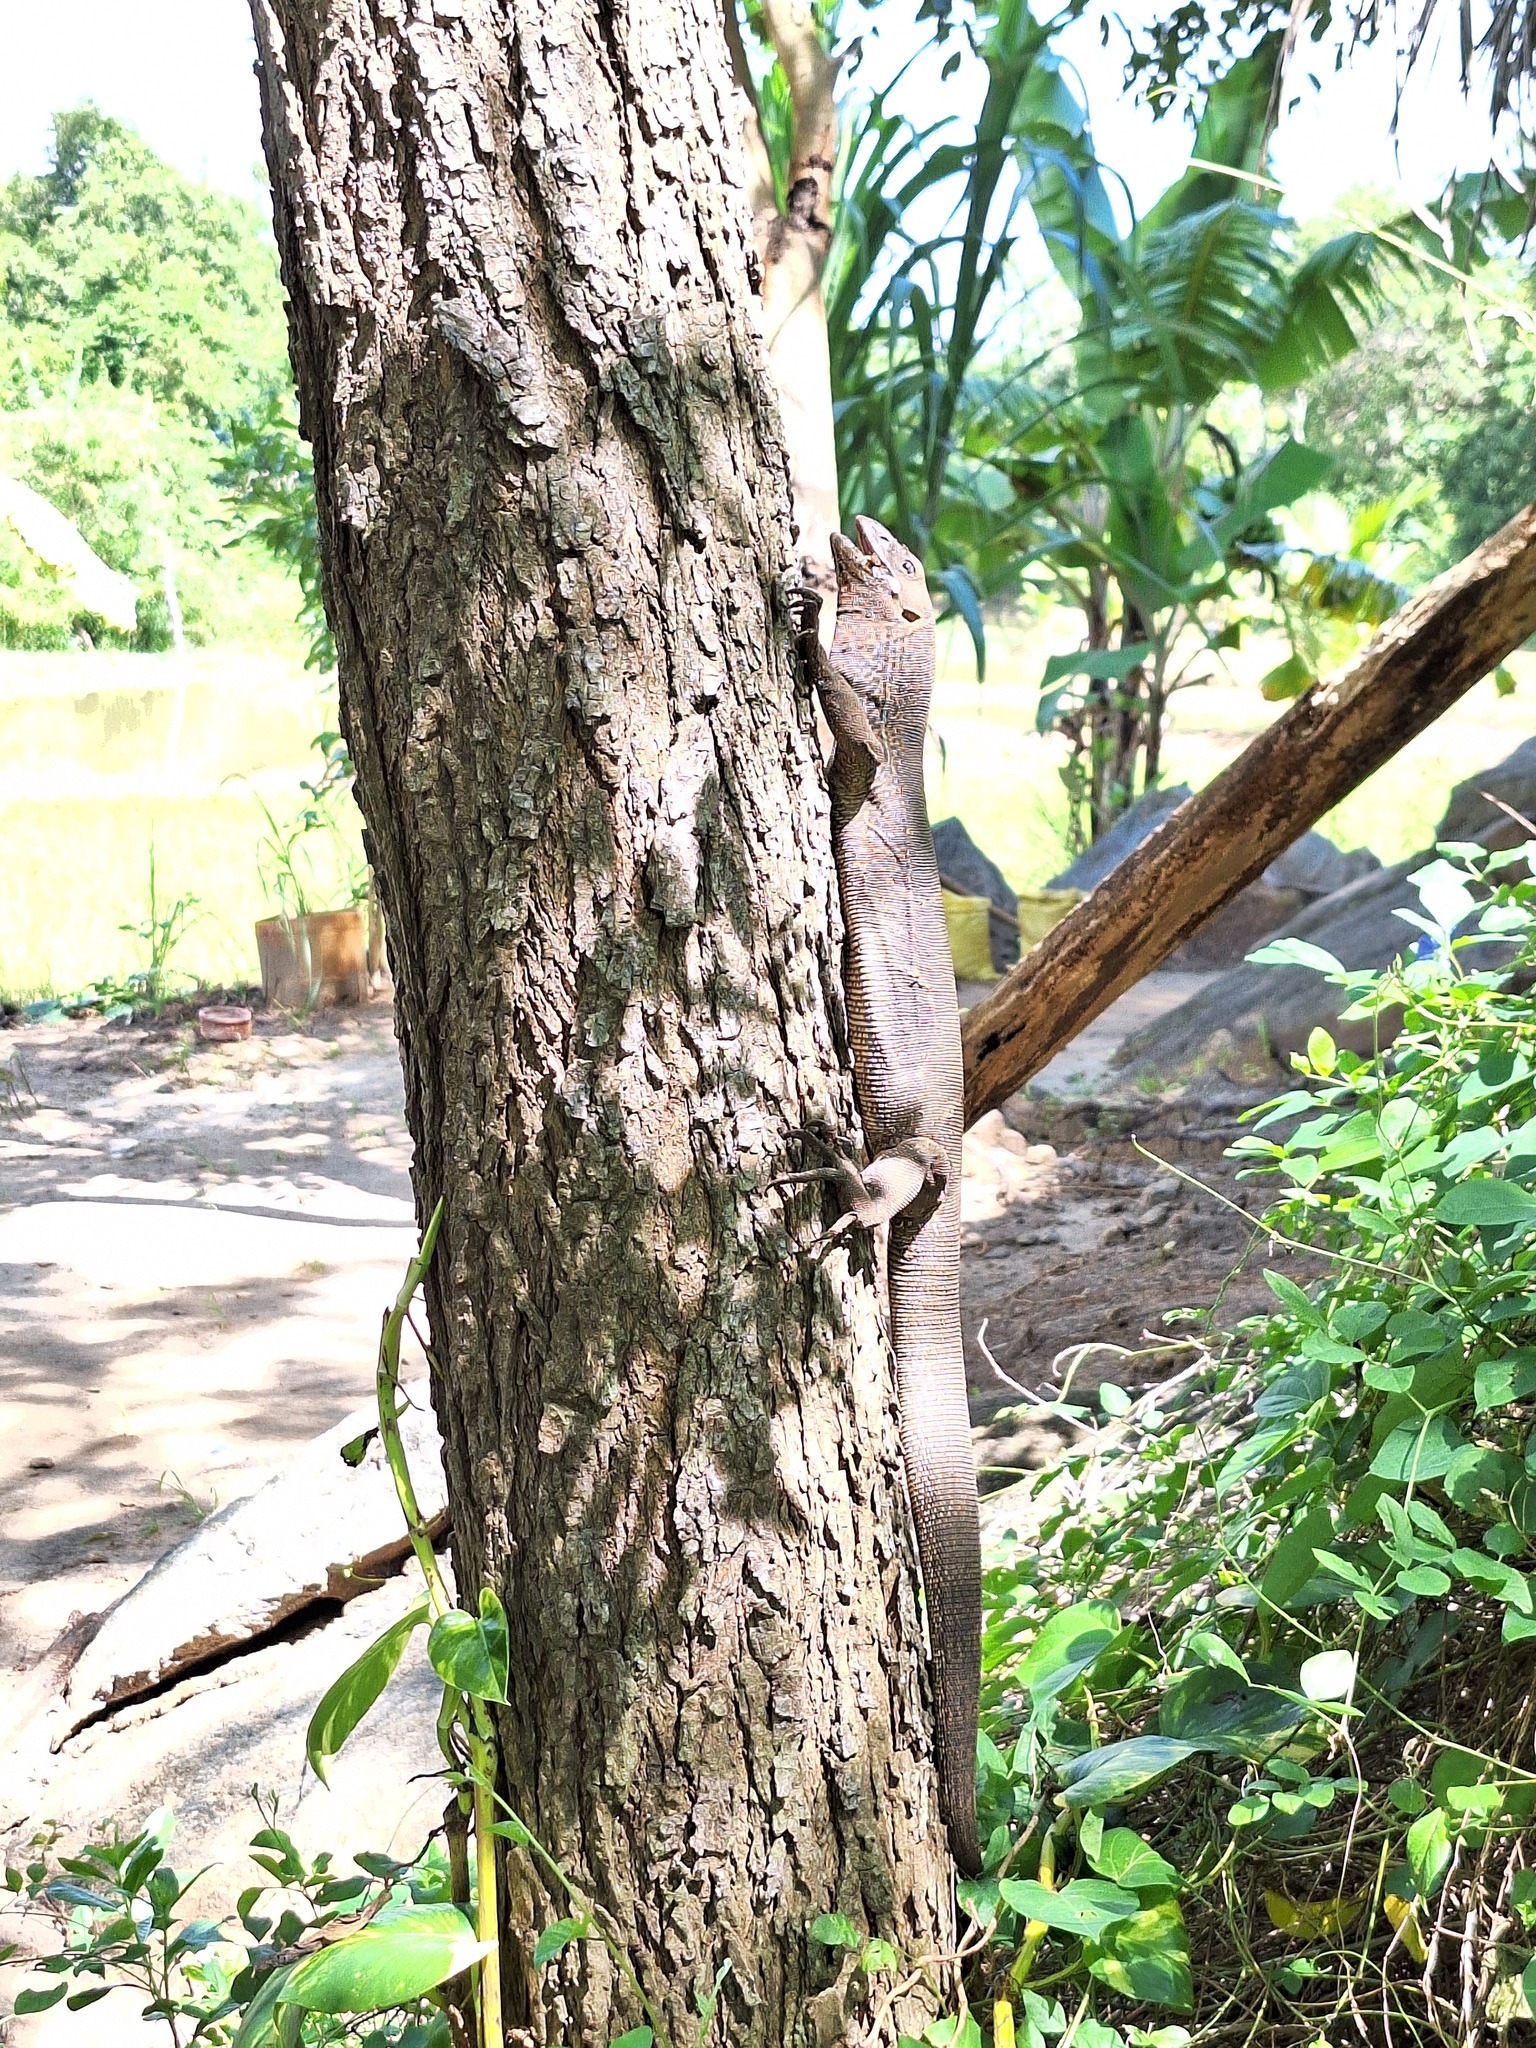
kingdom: Animalia
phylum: Chordata
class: Squamata
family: Varanidae
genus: Varanus
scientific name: Varanus bengalensis
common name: Bengal monitor
